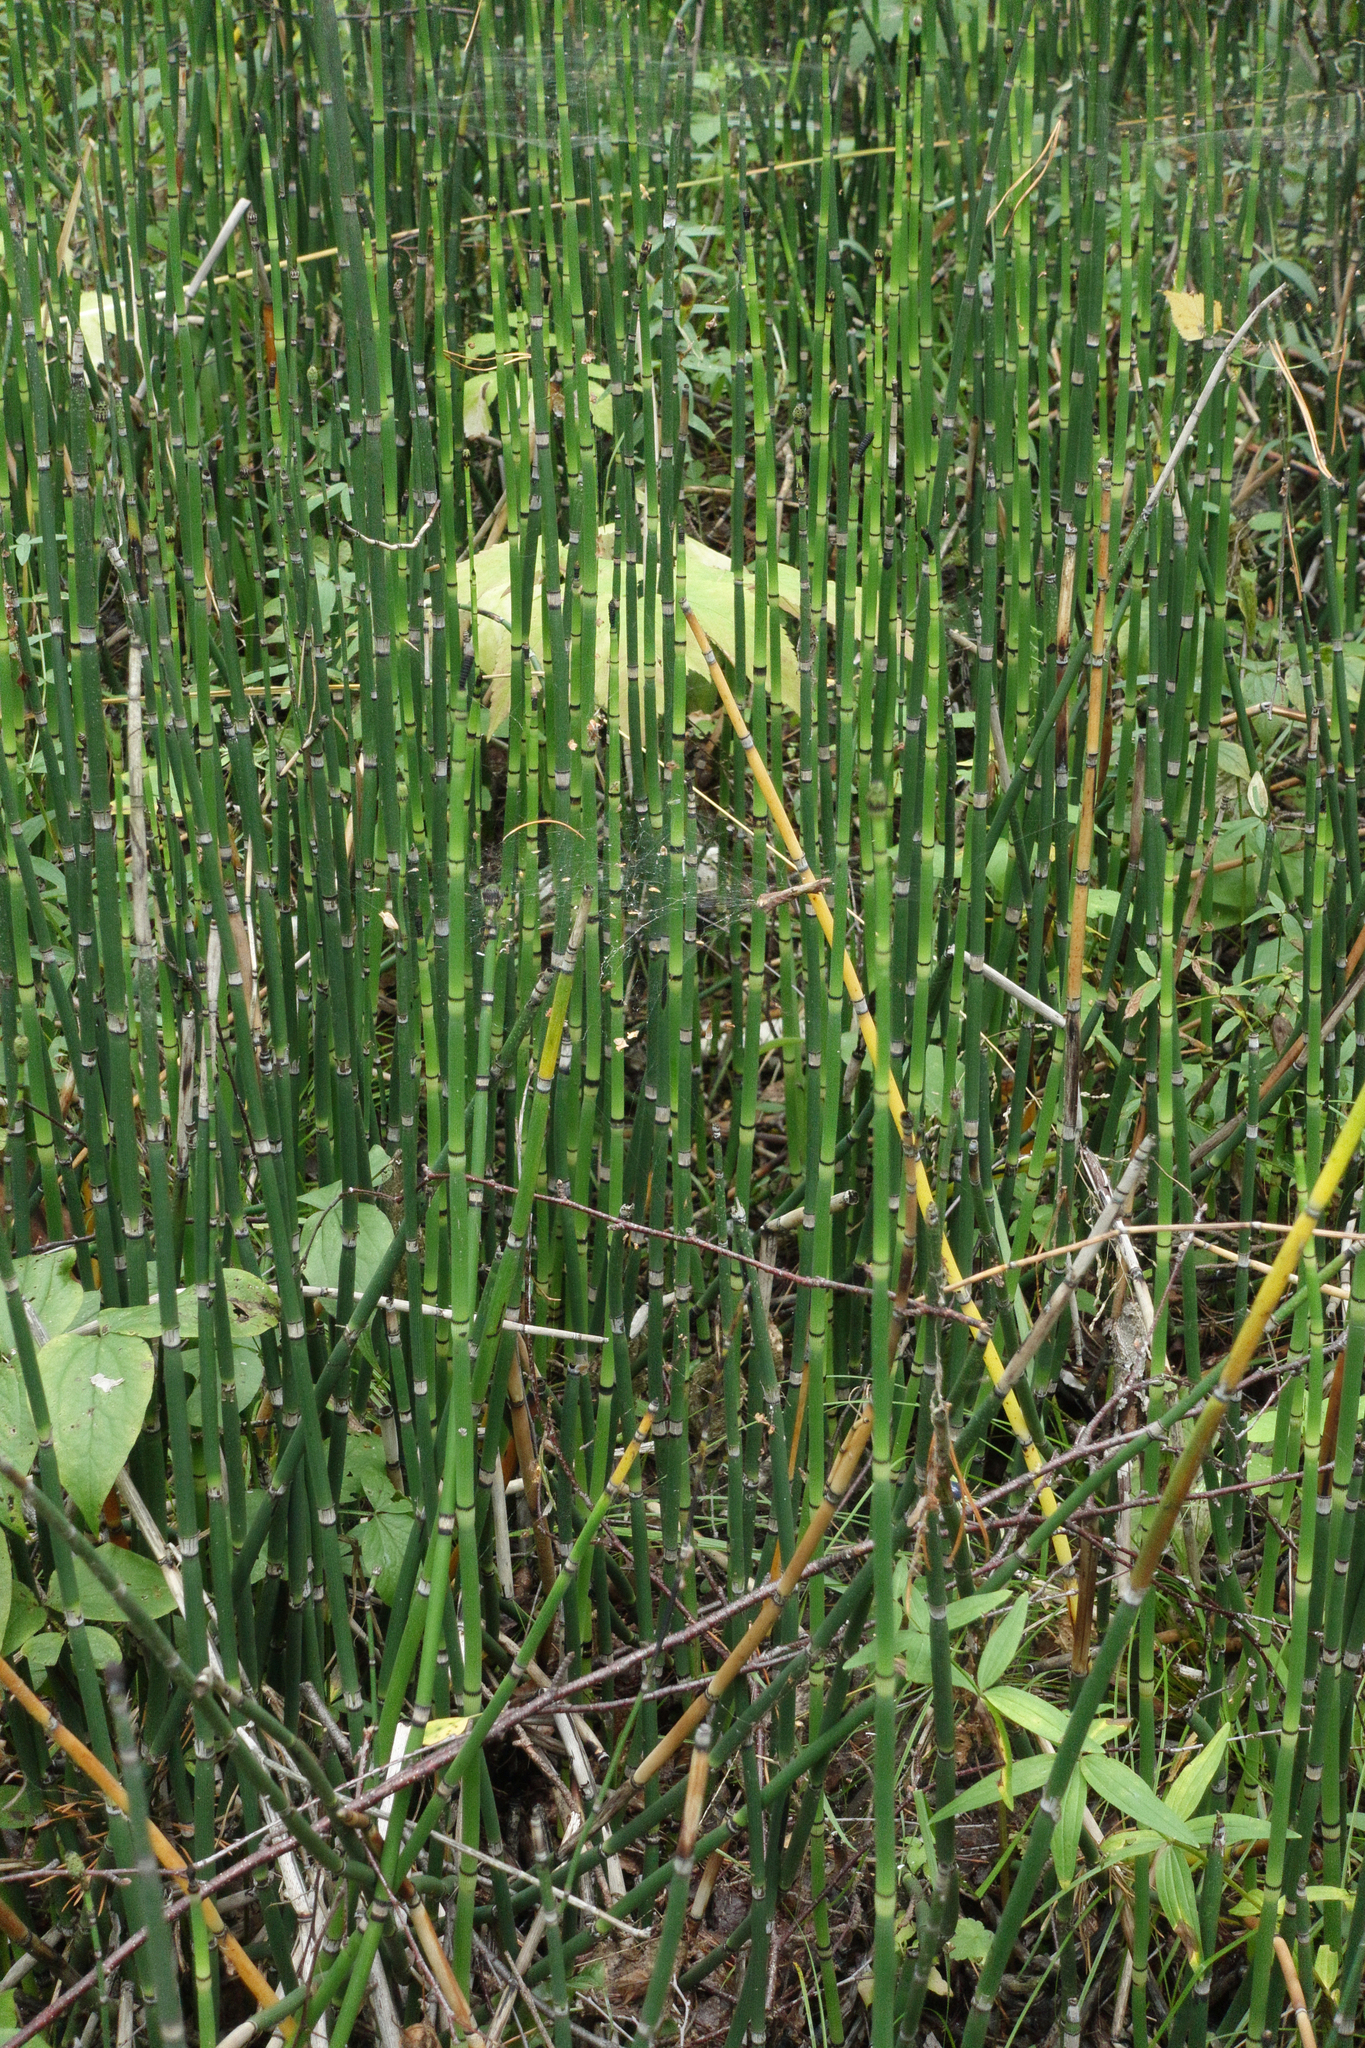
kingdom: Plantae
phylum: Tracheophyta
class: Polypodiopsida
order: Equisetales
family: Equisetaceae
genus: Equisetum
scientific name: Equisetum hyemale
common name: Rough horsetail
